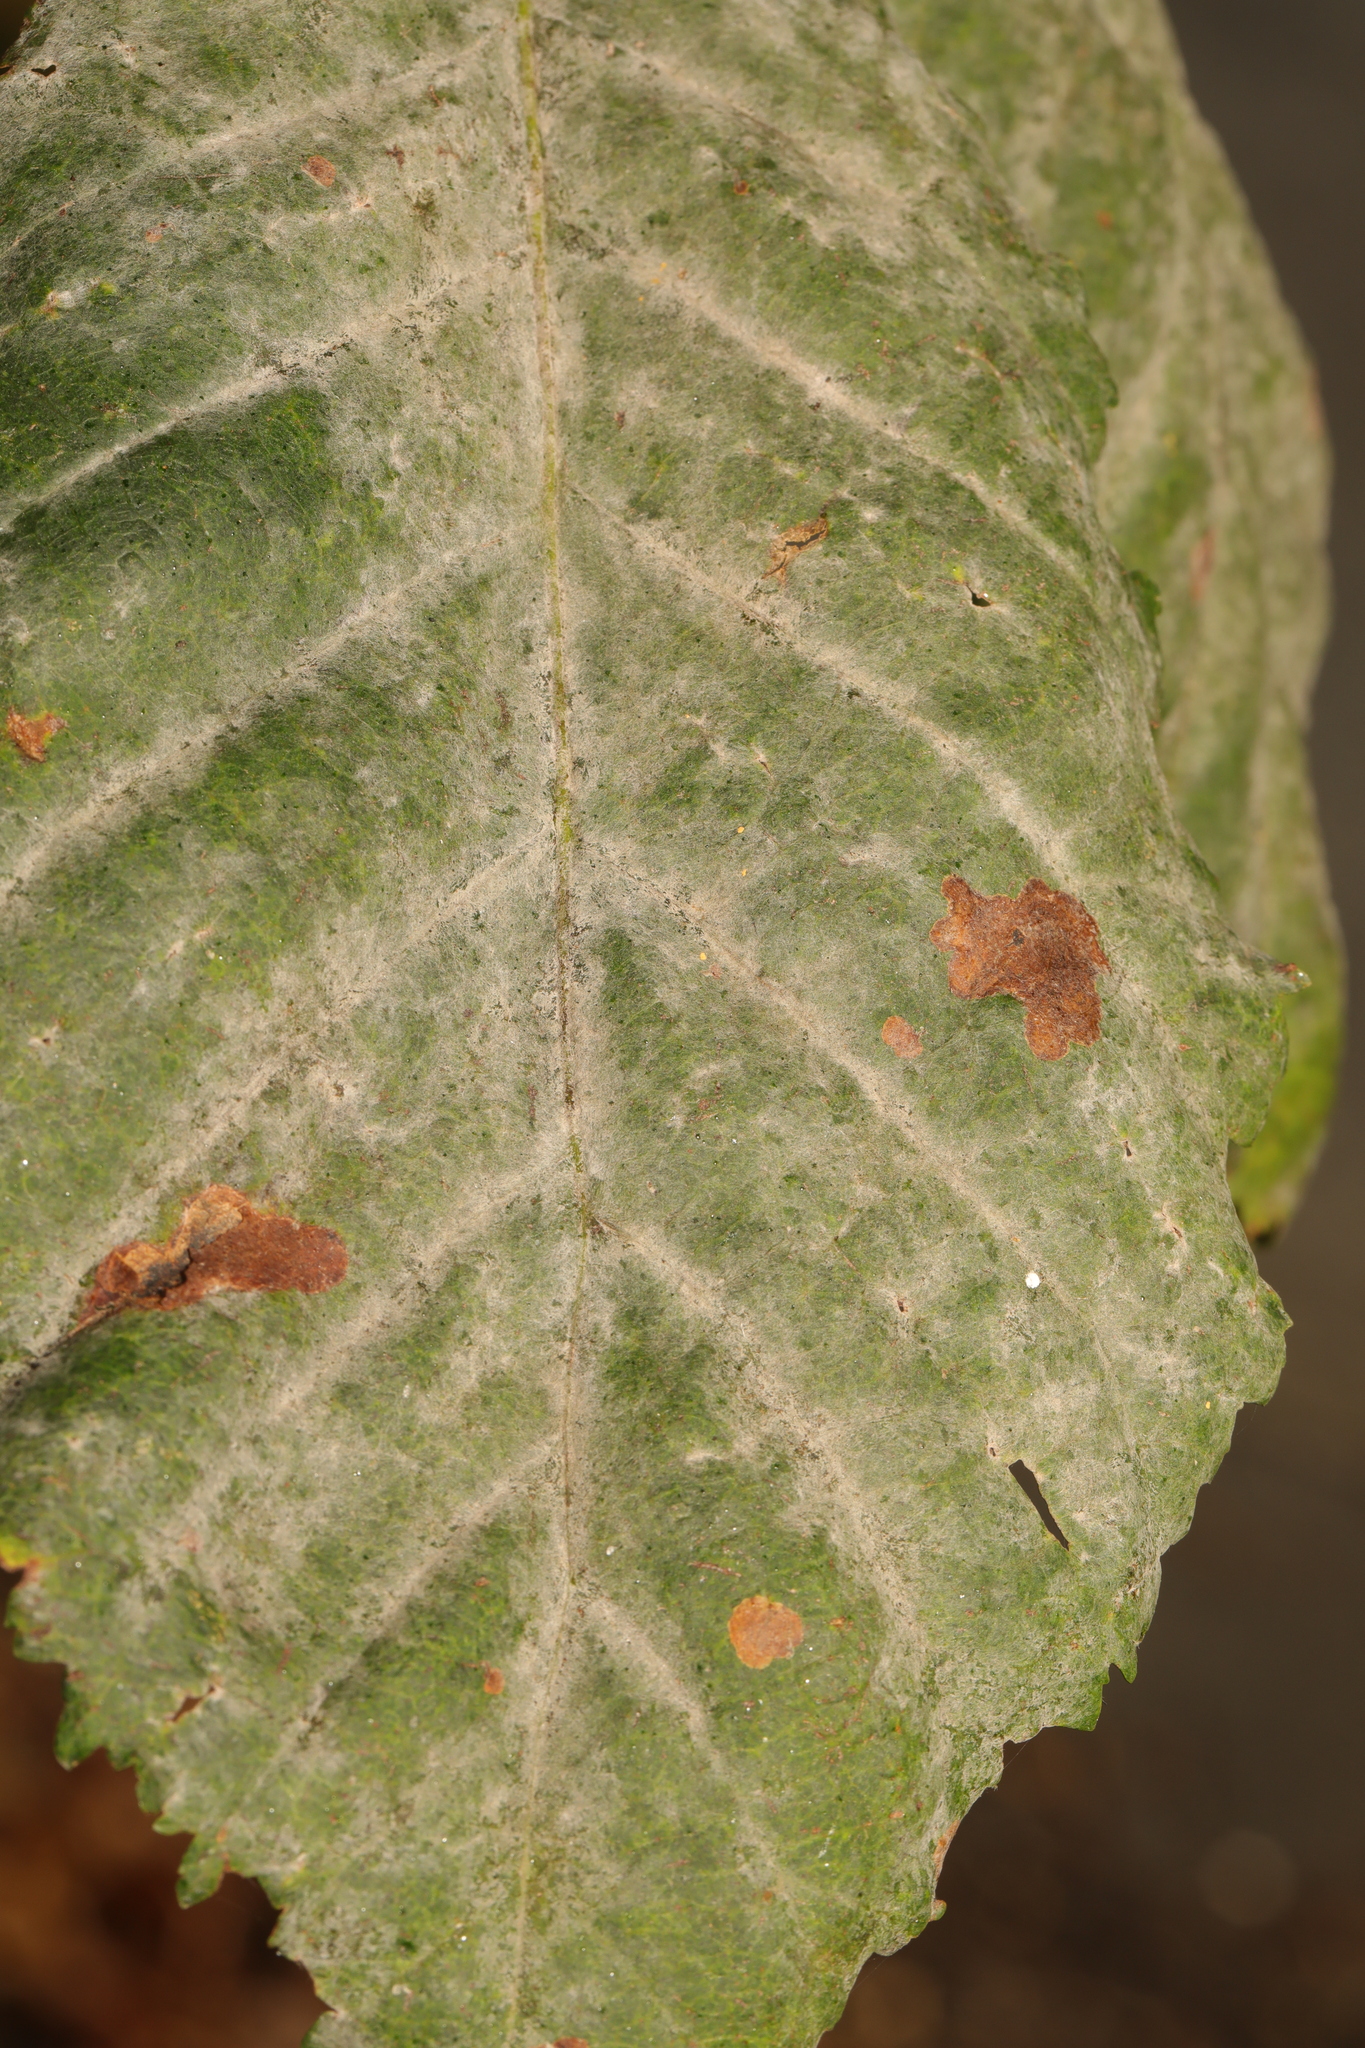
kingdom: Fungi
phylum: Ascomycota
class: Leotiomycetes
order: Helotiales
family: Erysiphaceae
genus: Erysiphe
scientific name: Erysiphe flexuosa
